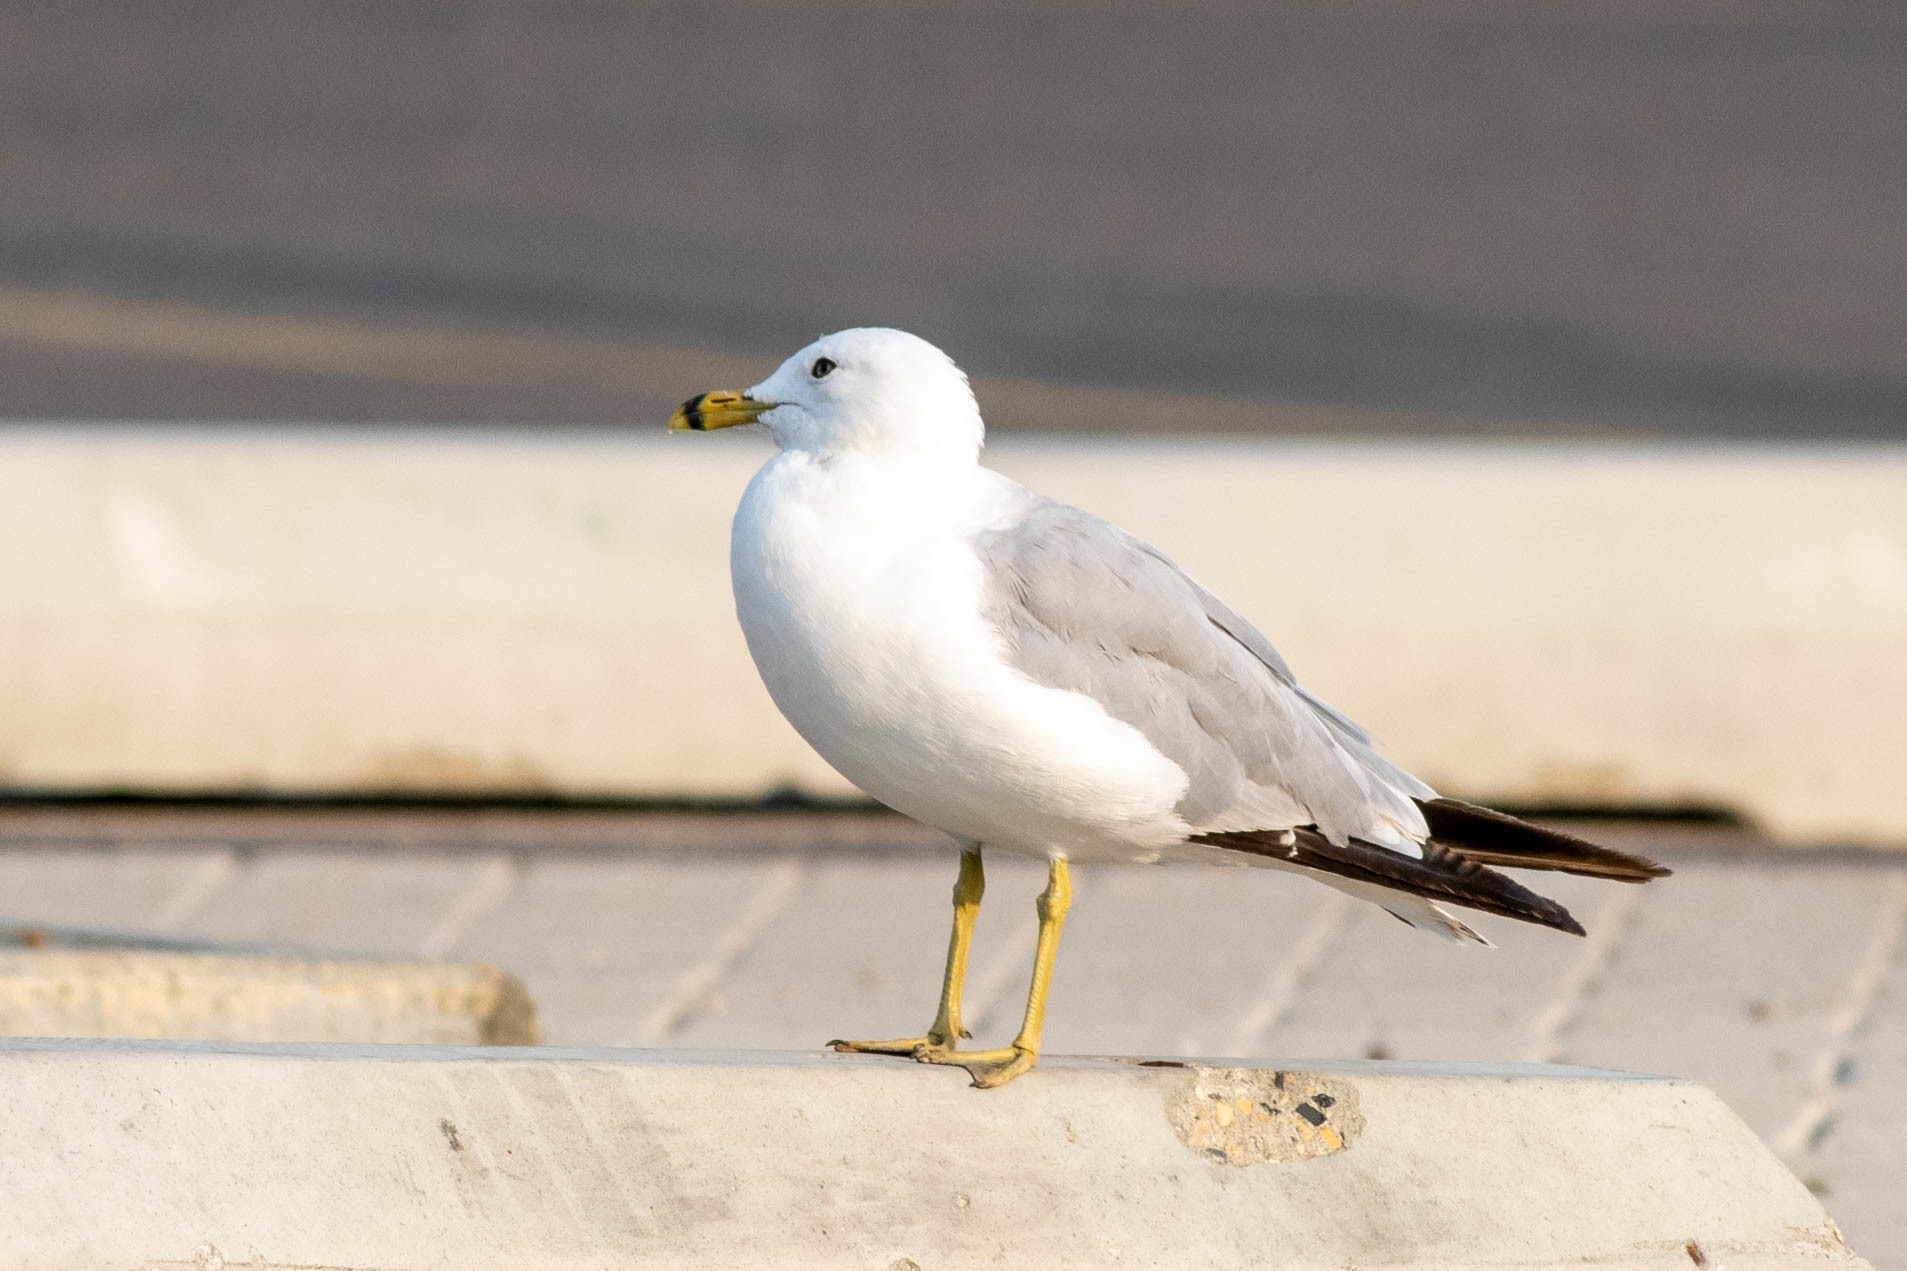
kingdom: Animalia
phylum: Chordata
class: Aves
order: Charadriiformes
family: Laridae
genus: Larus
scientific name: Larus delawarensis
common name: Ring-billed gull
